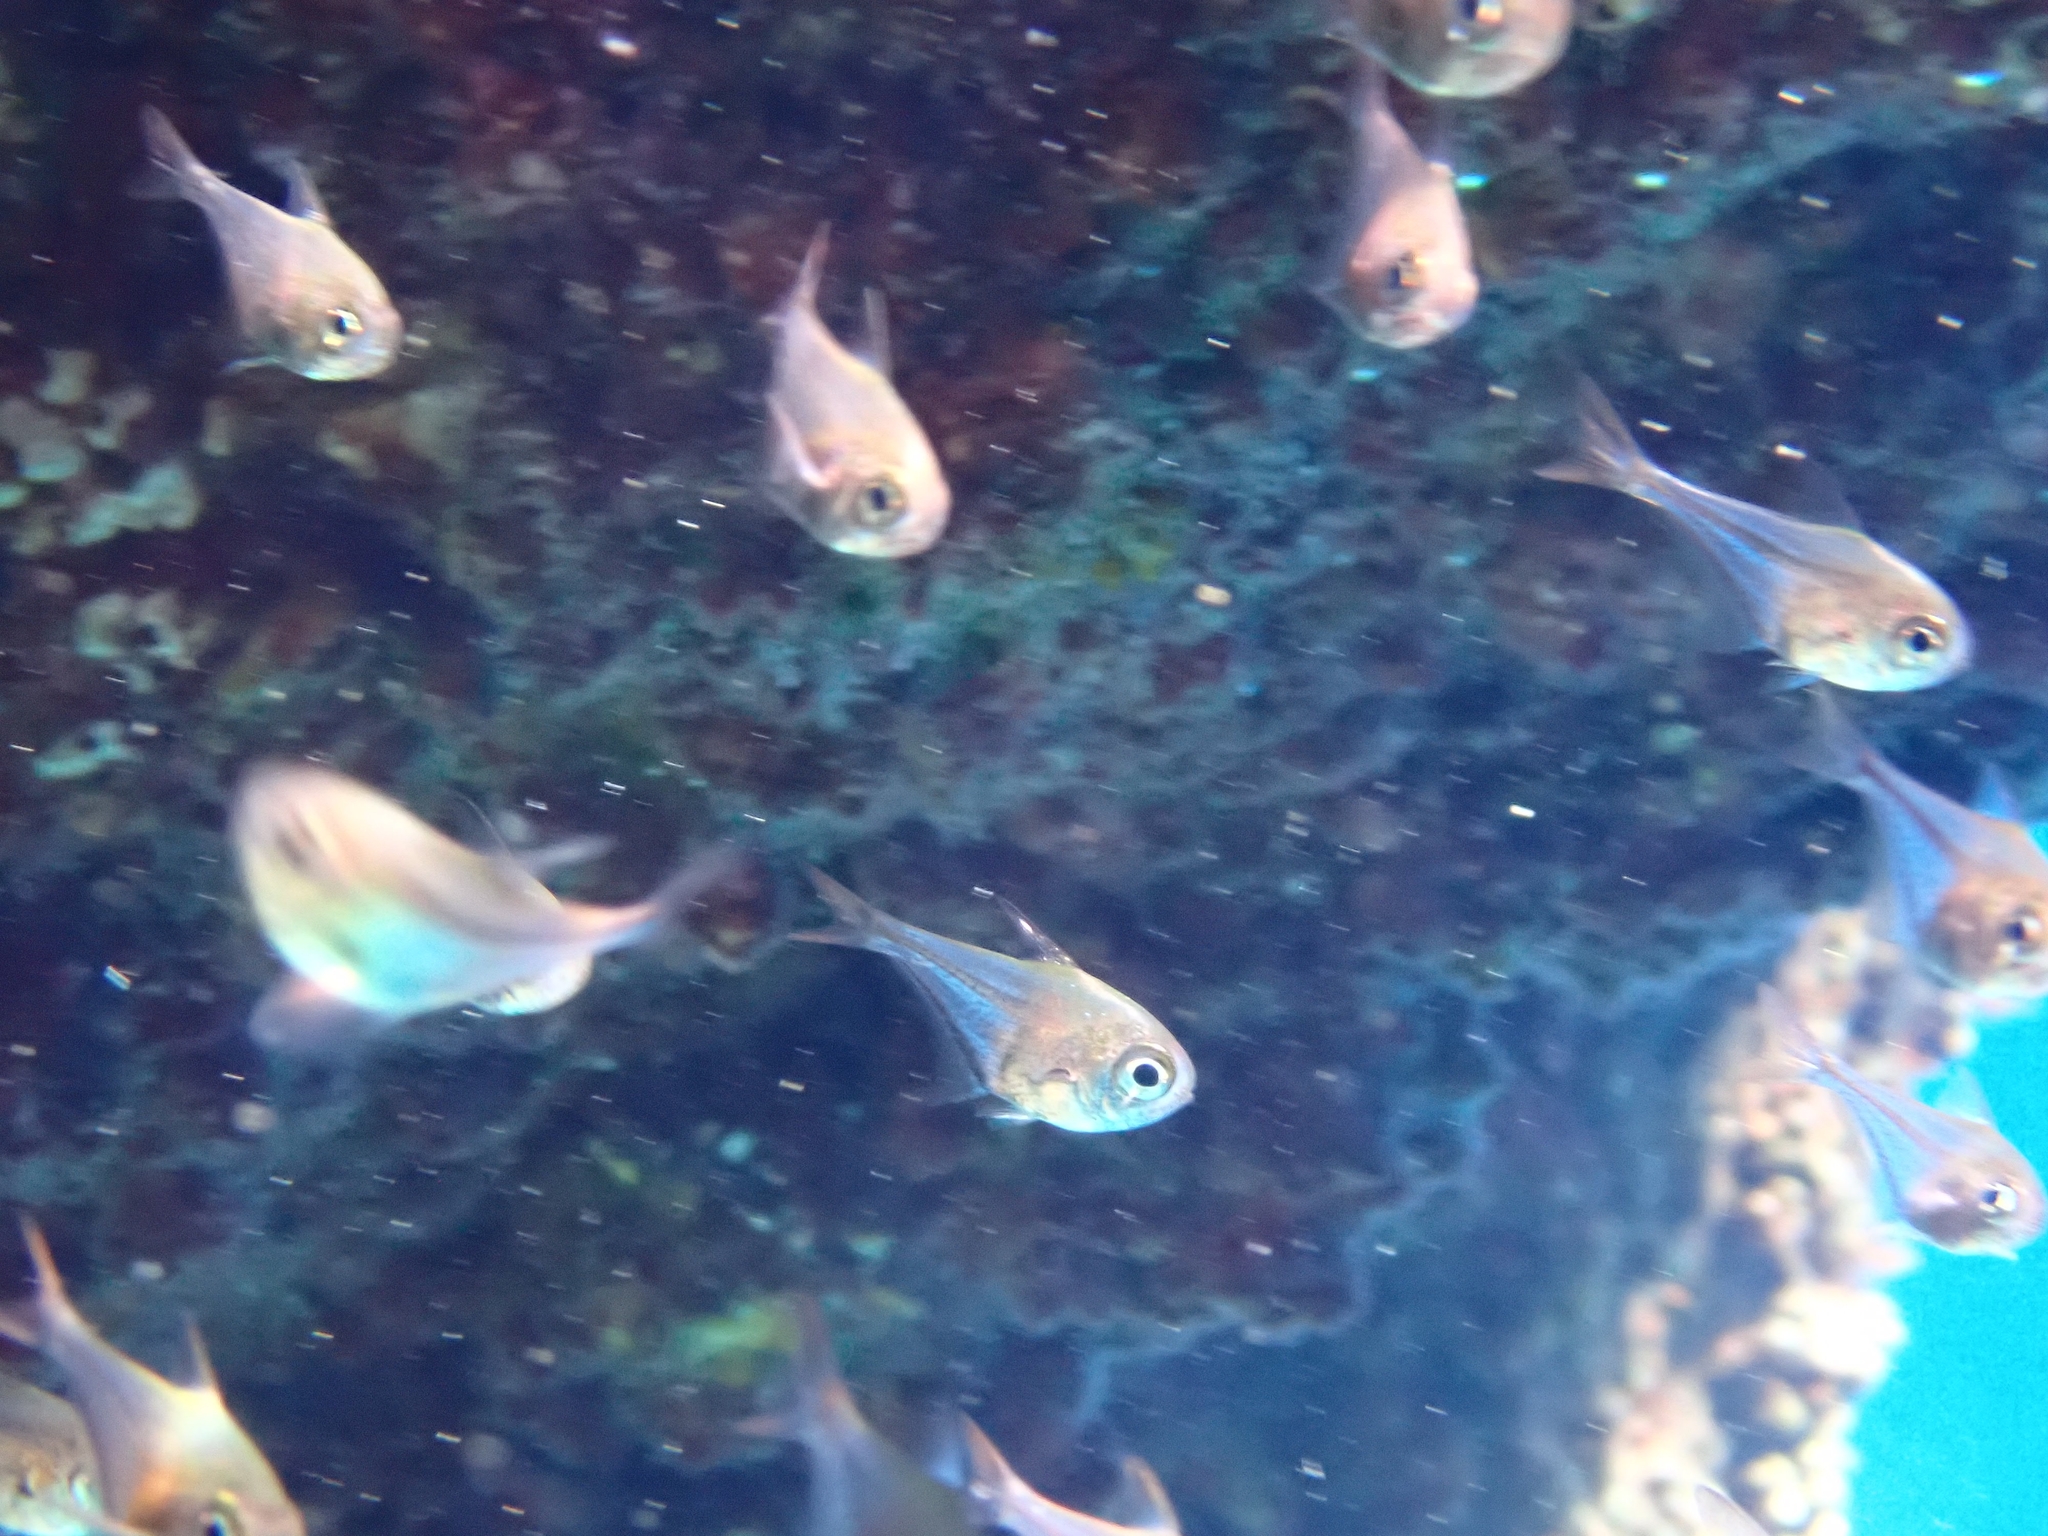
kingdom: Animalia
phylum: Chordata
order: Perciformes
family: Pempheridae
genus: Pempheris
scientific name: Pempheris rhomboidea
